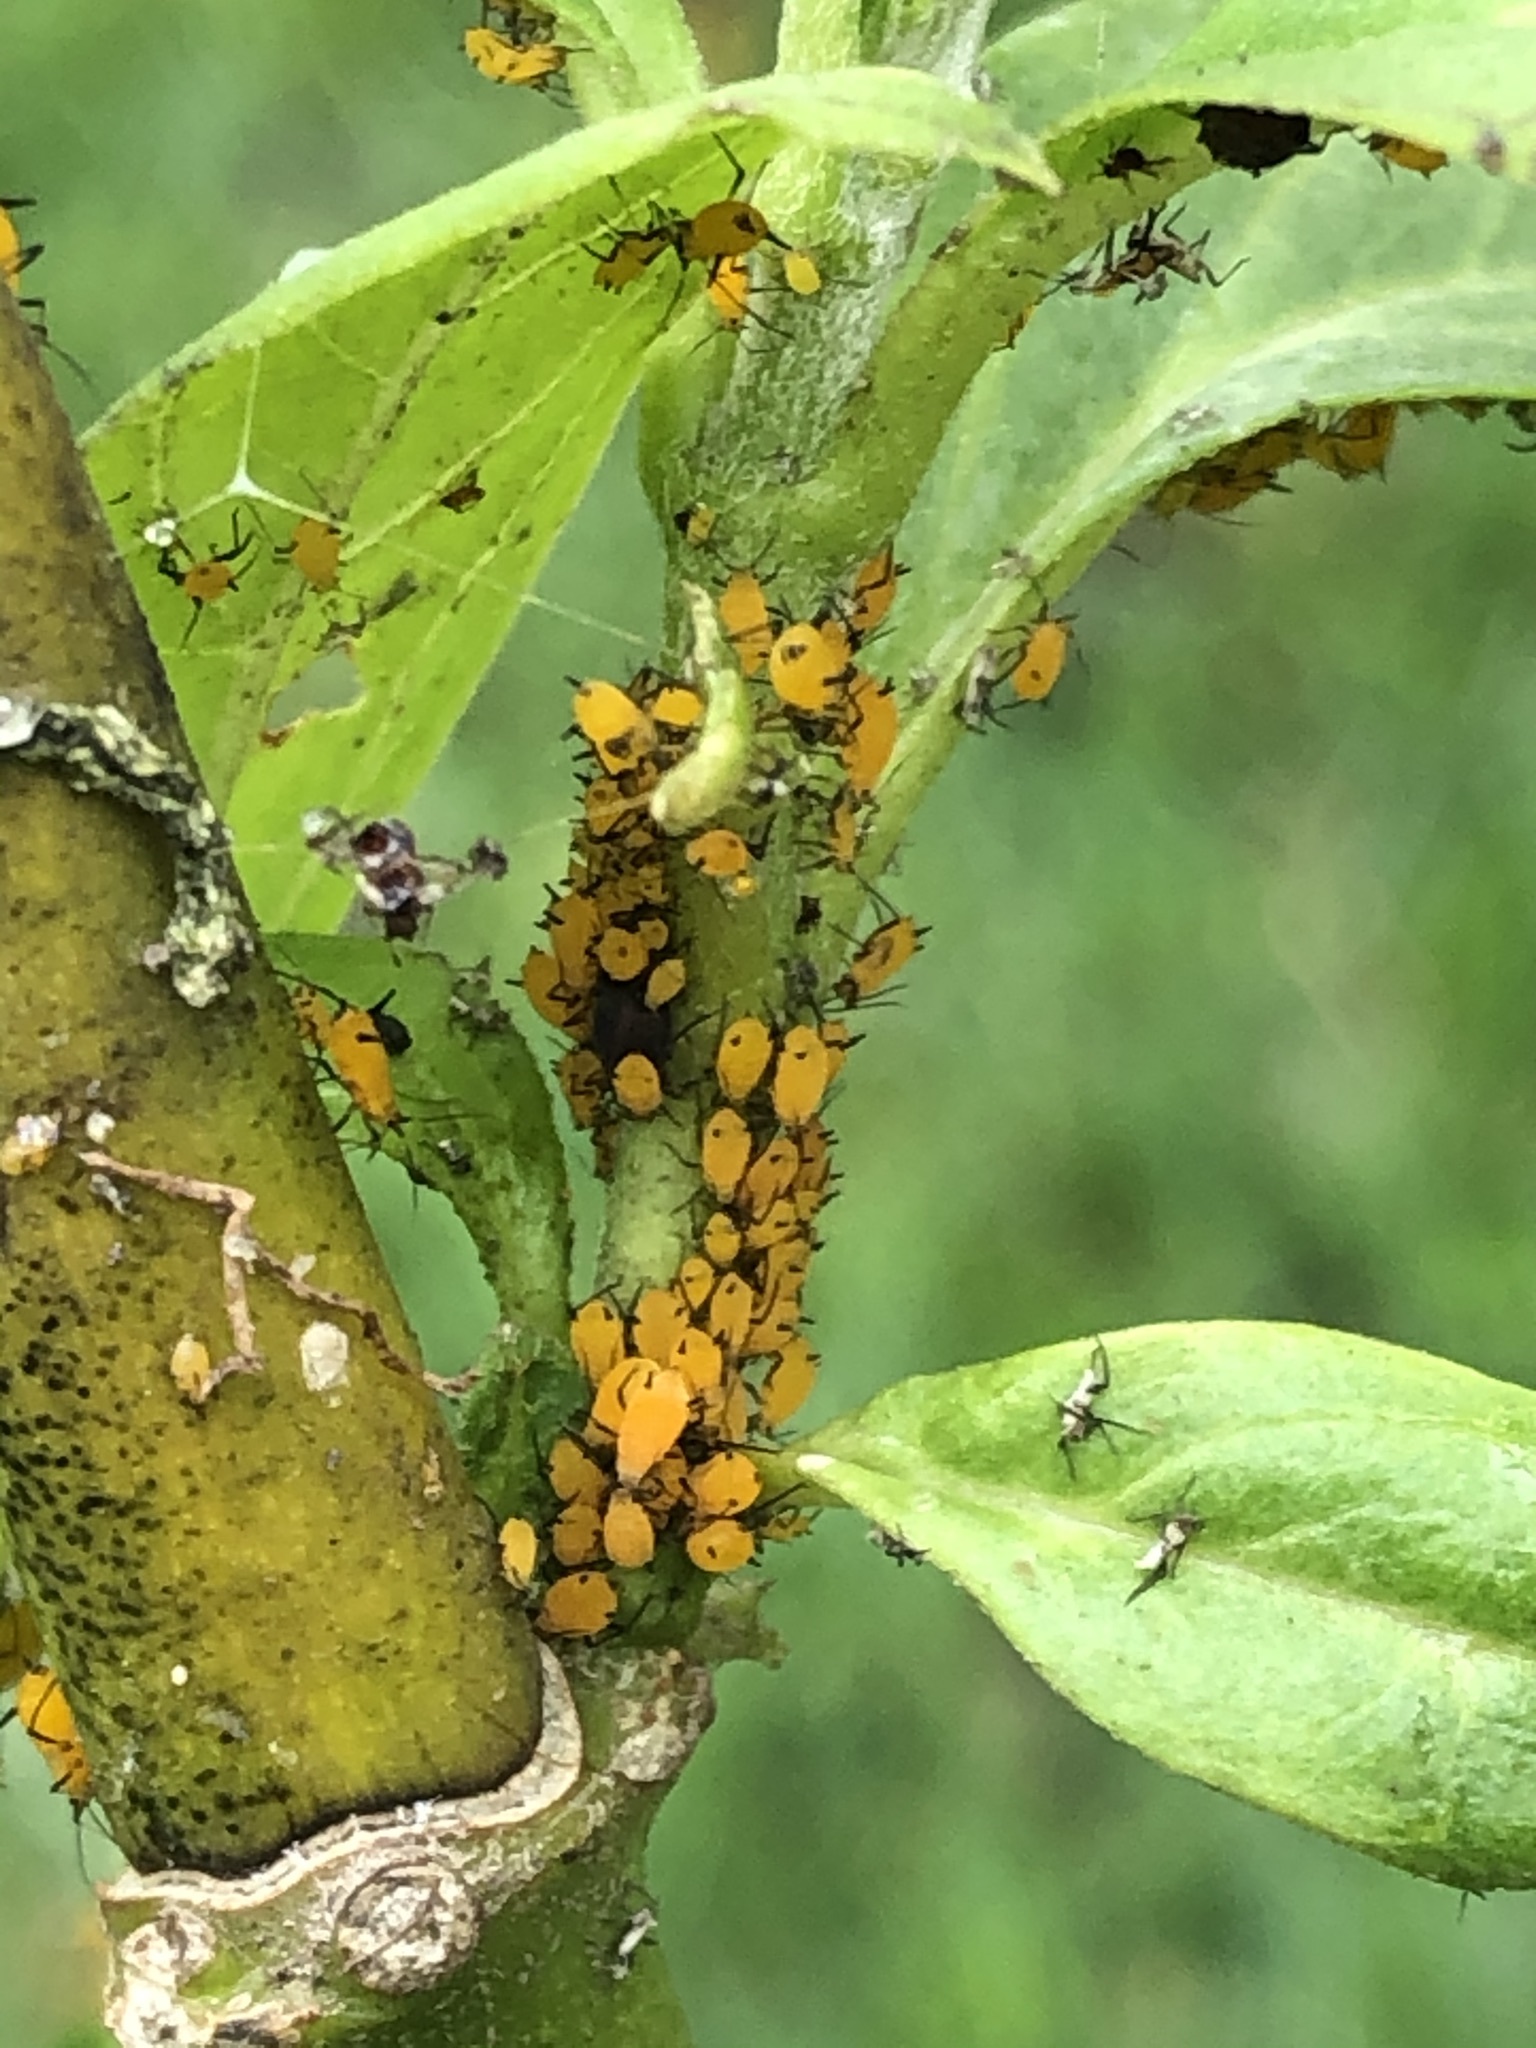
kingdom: Animalia
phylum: Arthropoda
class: Insecta
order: Hemiptera
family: Aphididae
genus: Aphis
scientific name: Aphis nerii
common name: Oleander aphid
